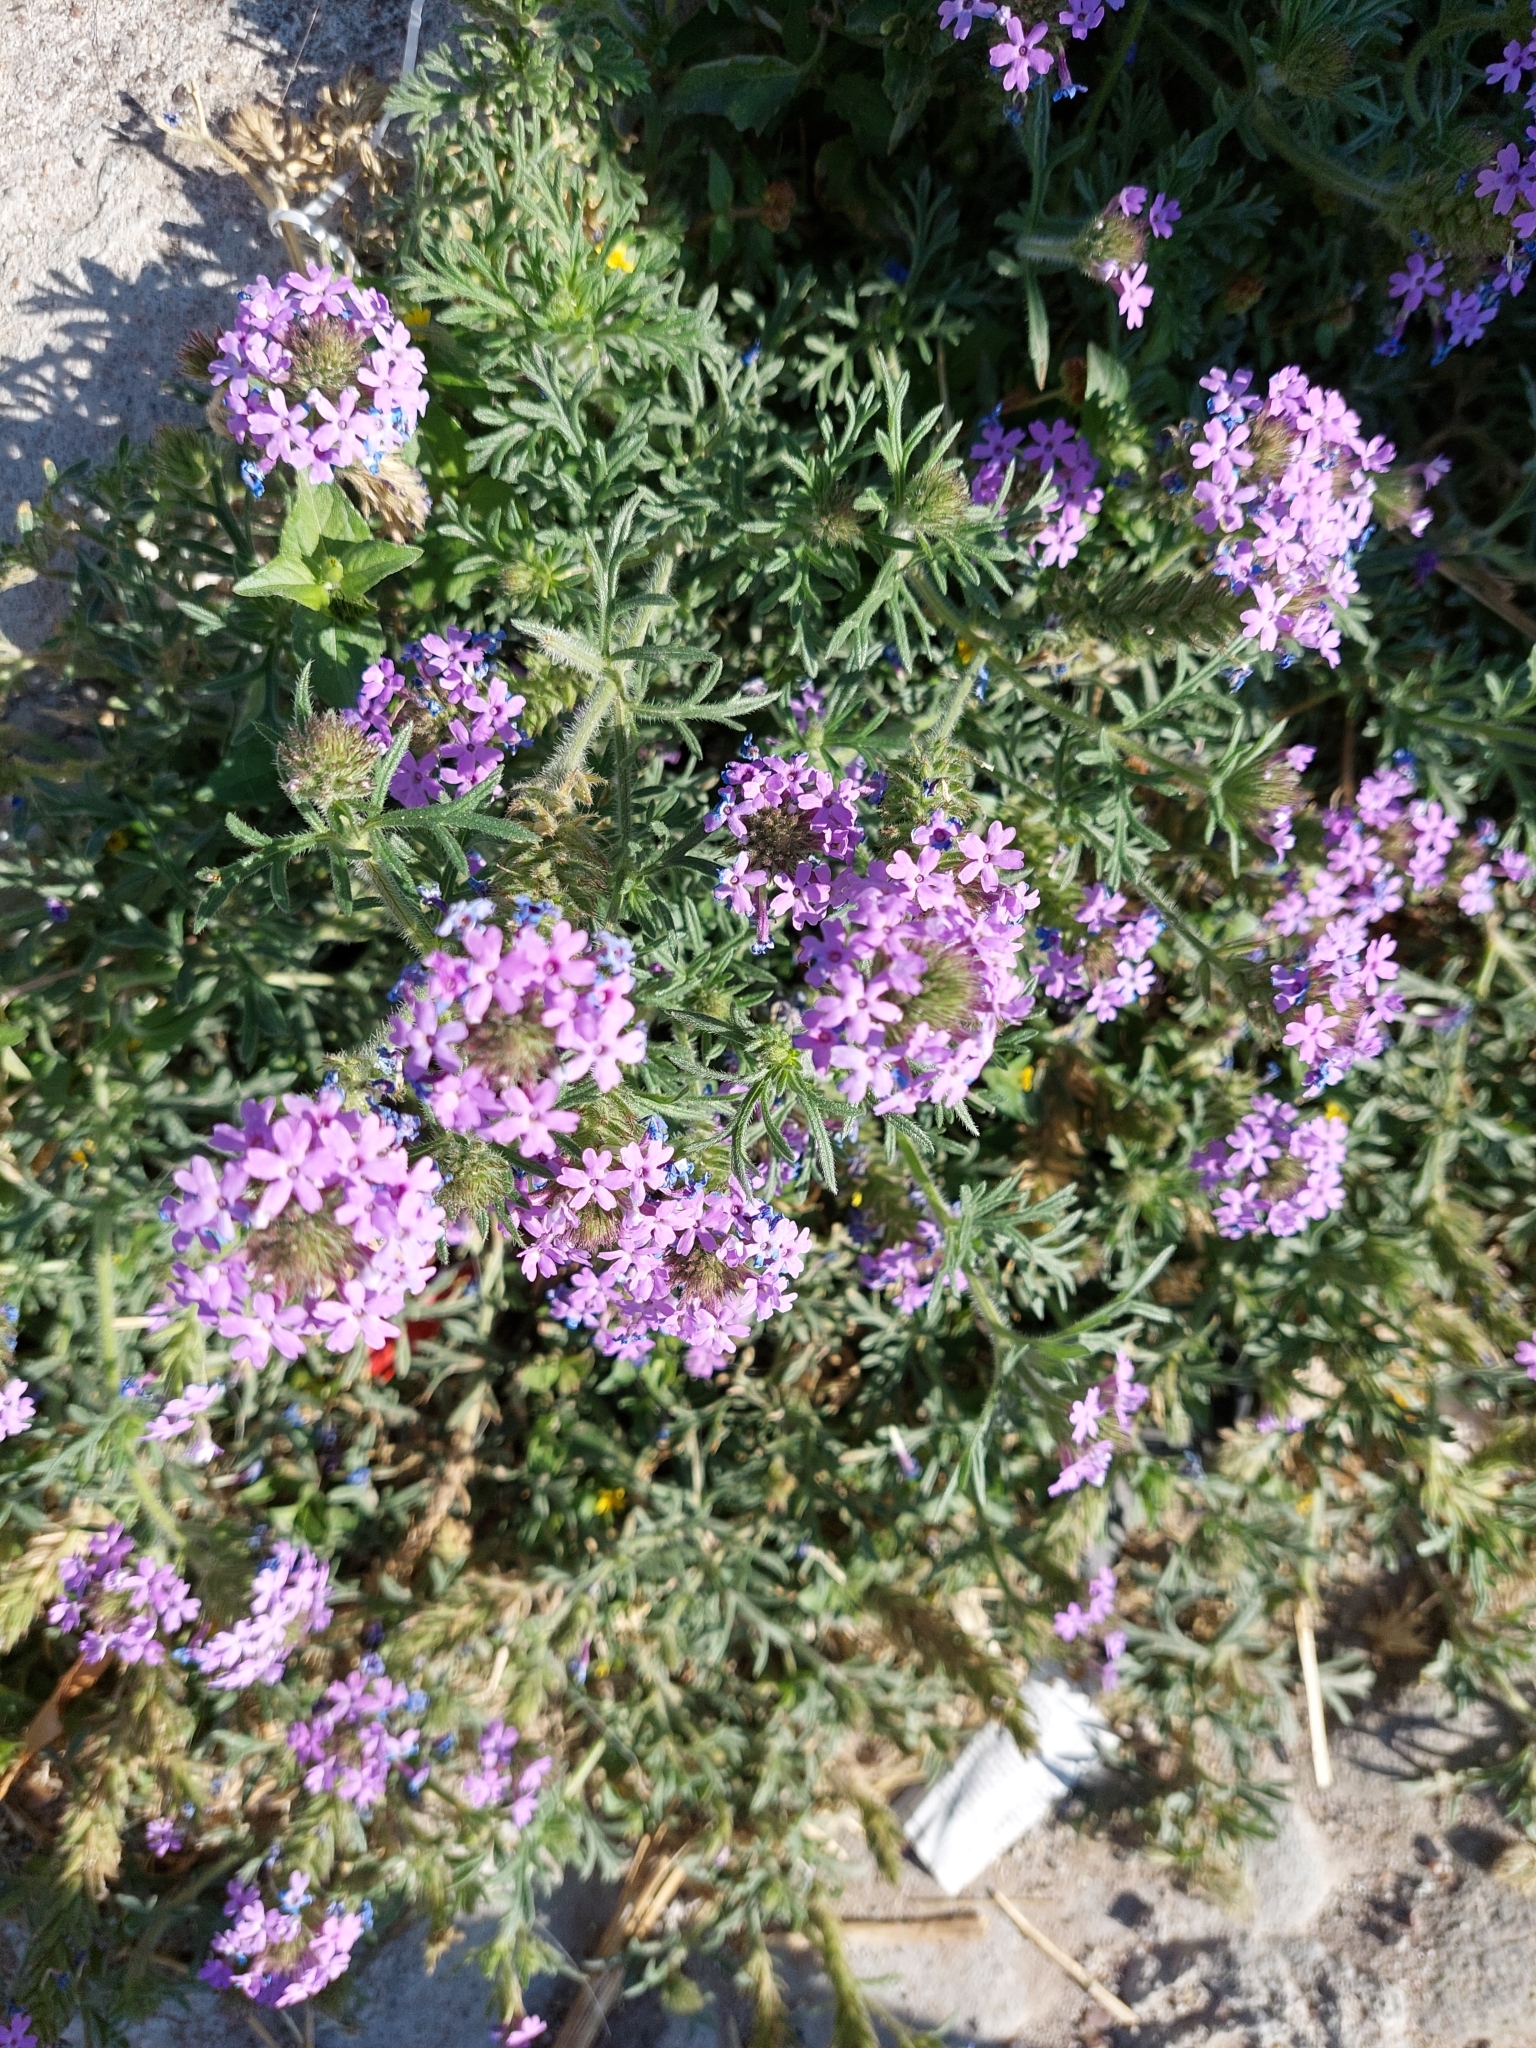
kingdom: Plantae
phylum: Tracheophyta
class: Magnoliopsida
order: Lamiales
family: Verbenaceae
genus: Verbena
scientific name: Verbena bipinnatifida
